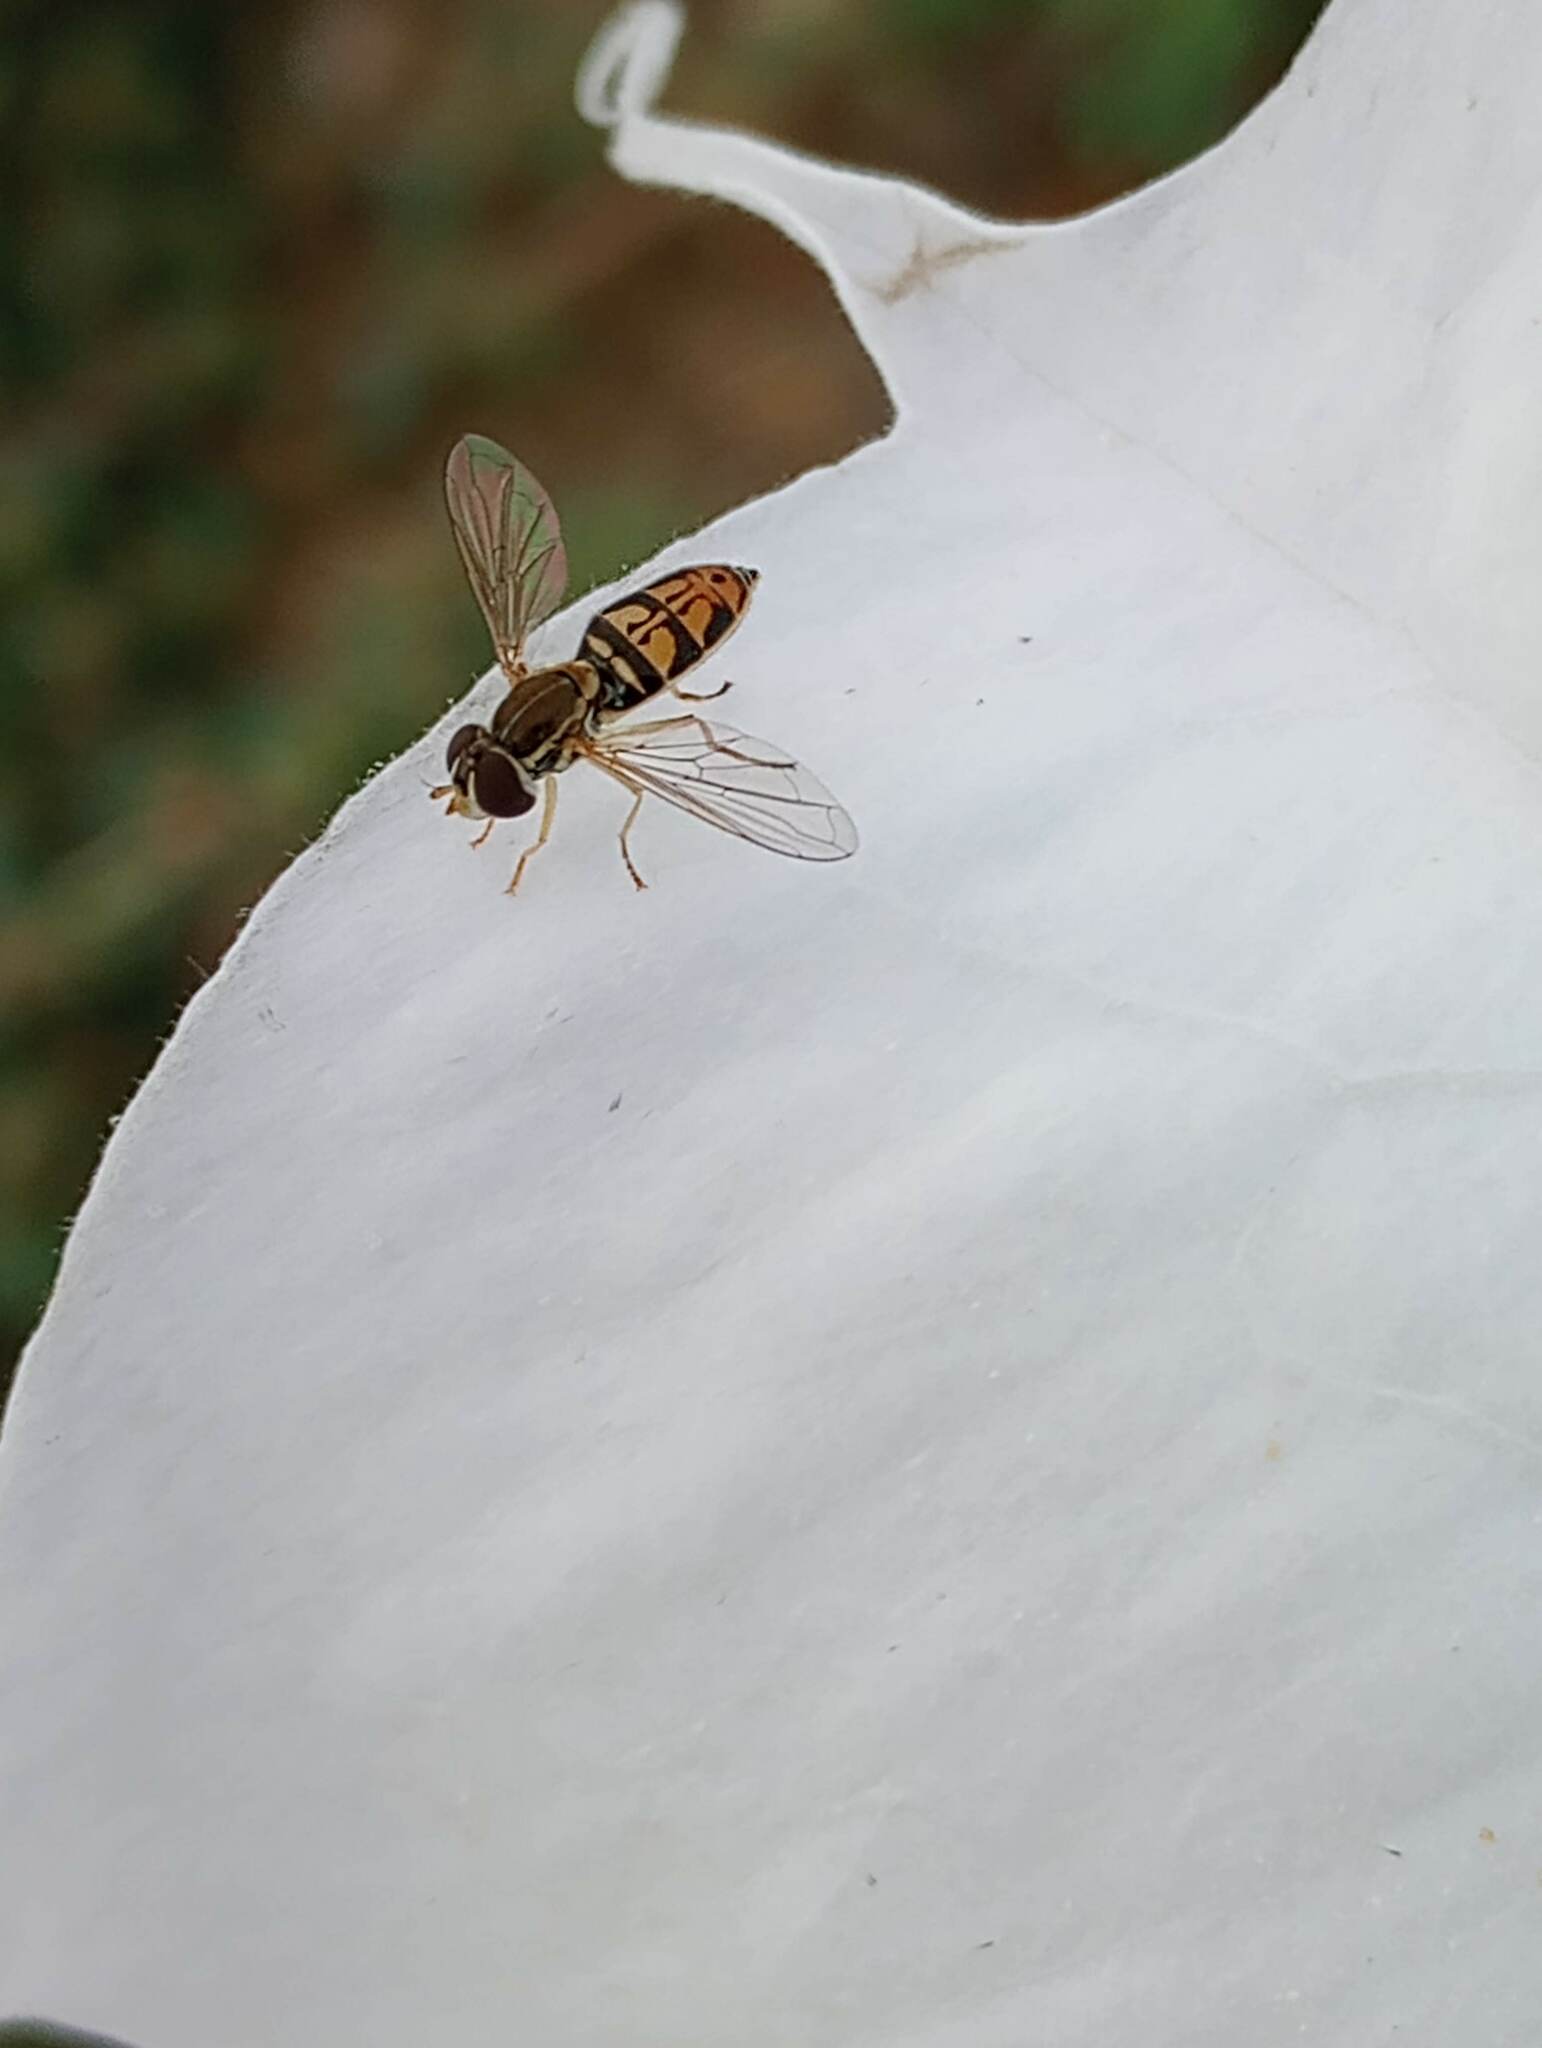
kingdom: Animalia
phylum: Arthropoda
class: Insecta
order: Diptera
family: Syrphidae
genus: Toxomerus
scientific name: Toxomerus marginatus
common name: Syrphid fly
